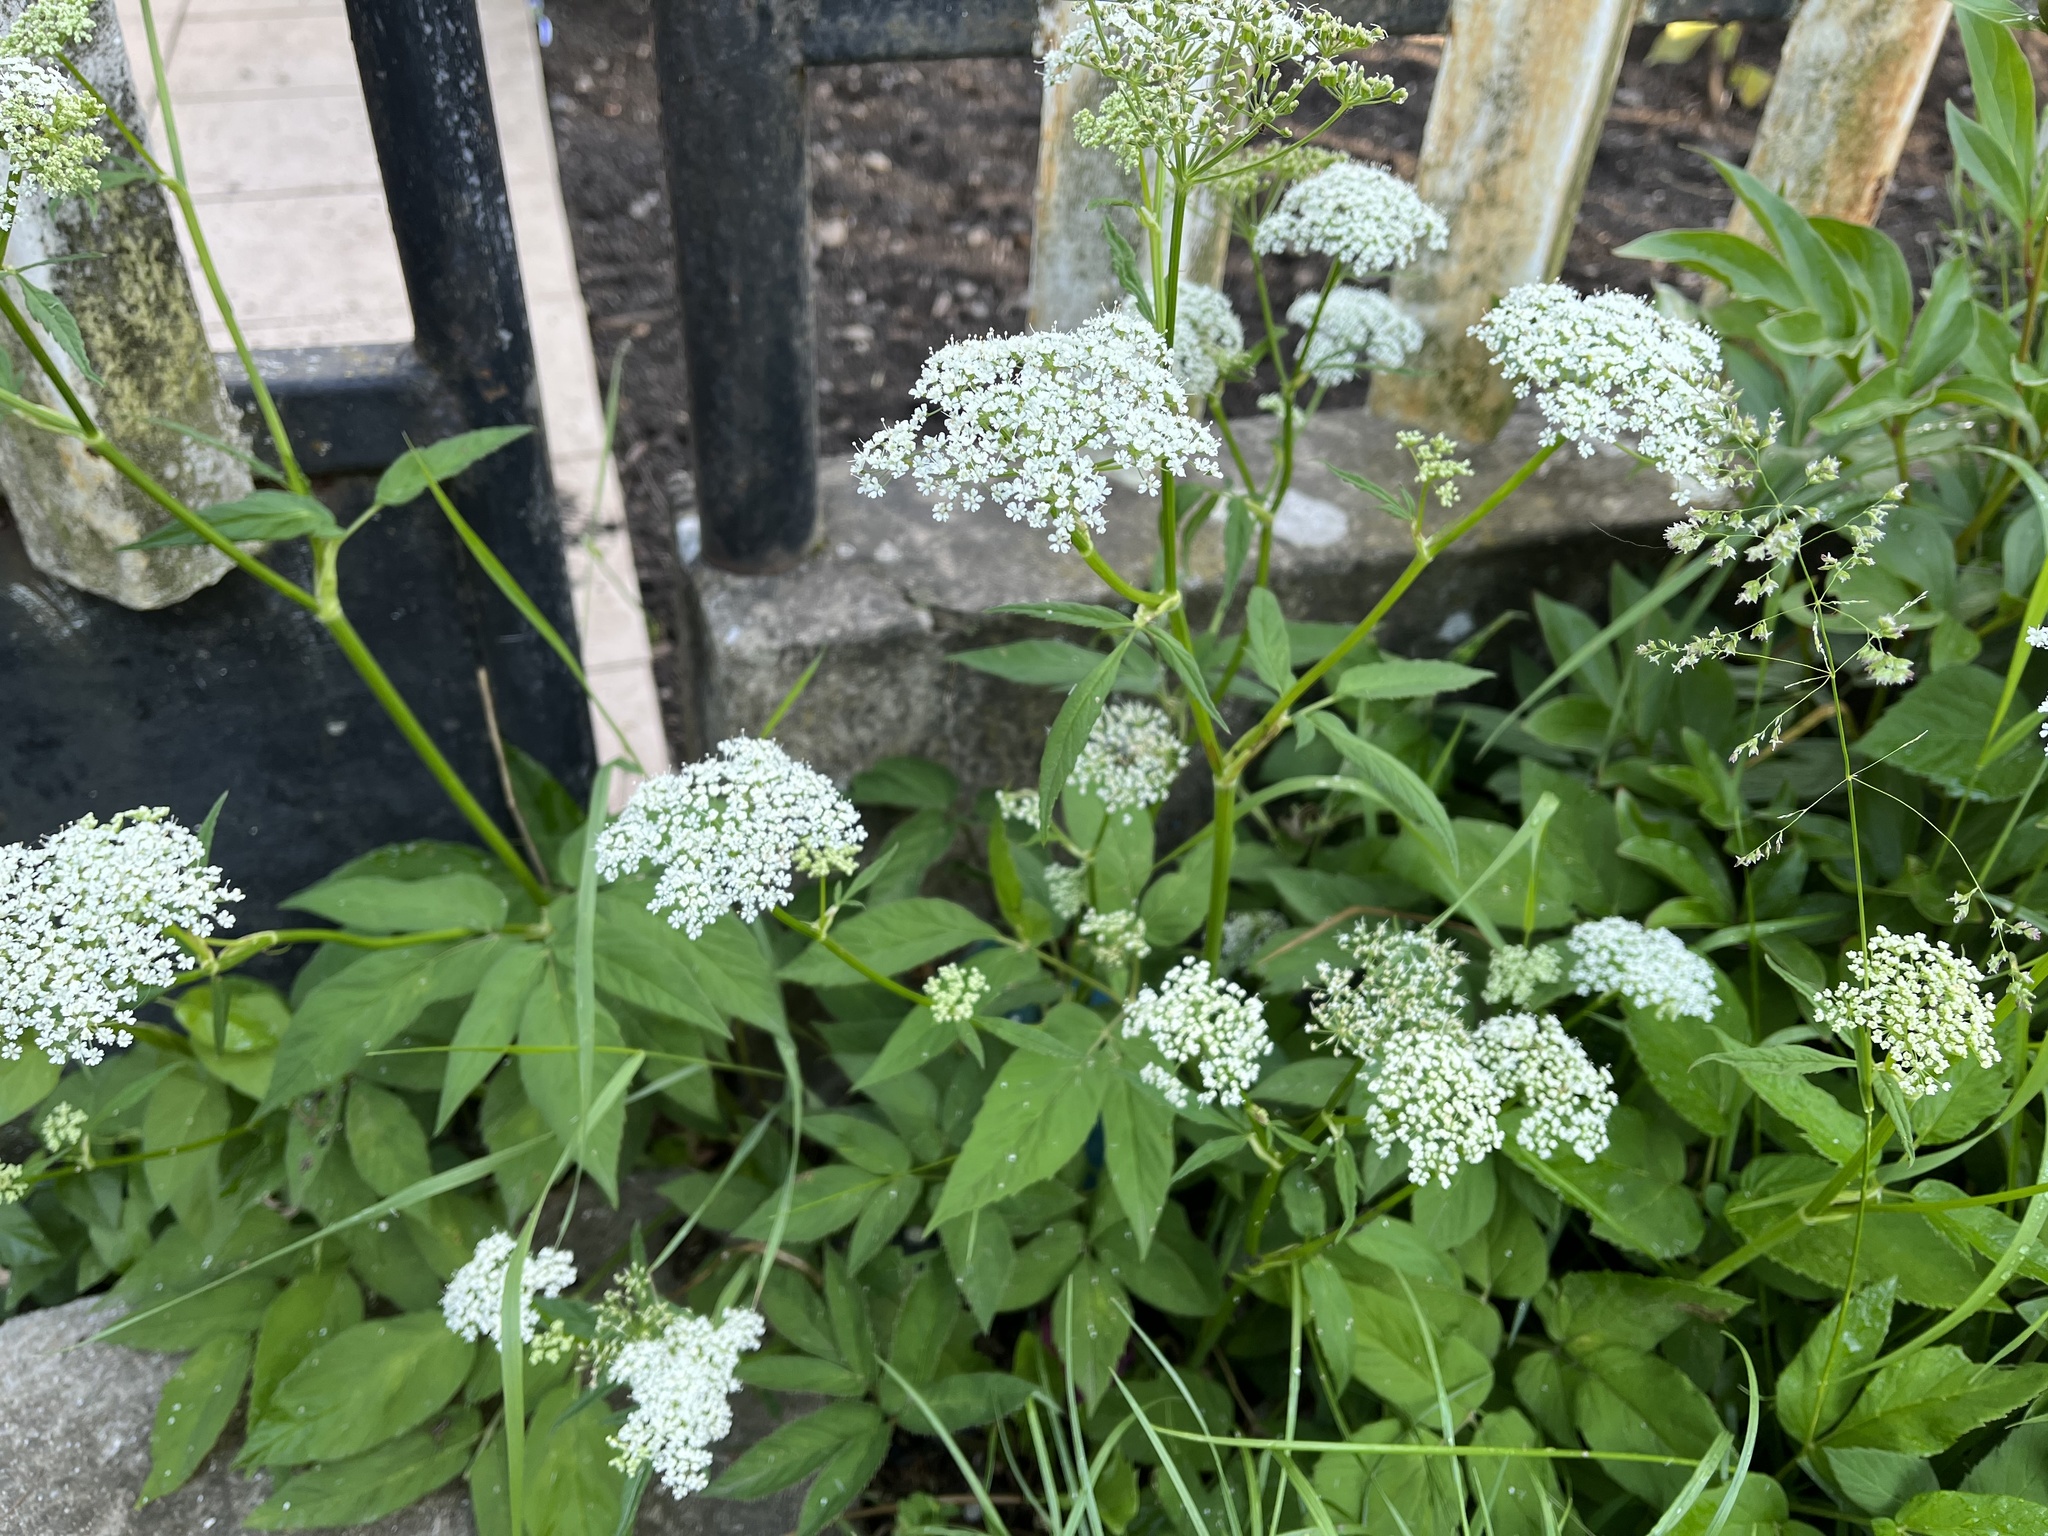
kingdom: Plantae
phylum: Tracheophyta
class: Magnoliopsida
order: Apiales
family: Apiaceae
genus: Aegopodium
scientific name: Aegopodium podagraria
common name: Ground-elder
